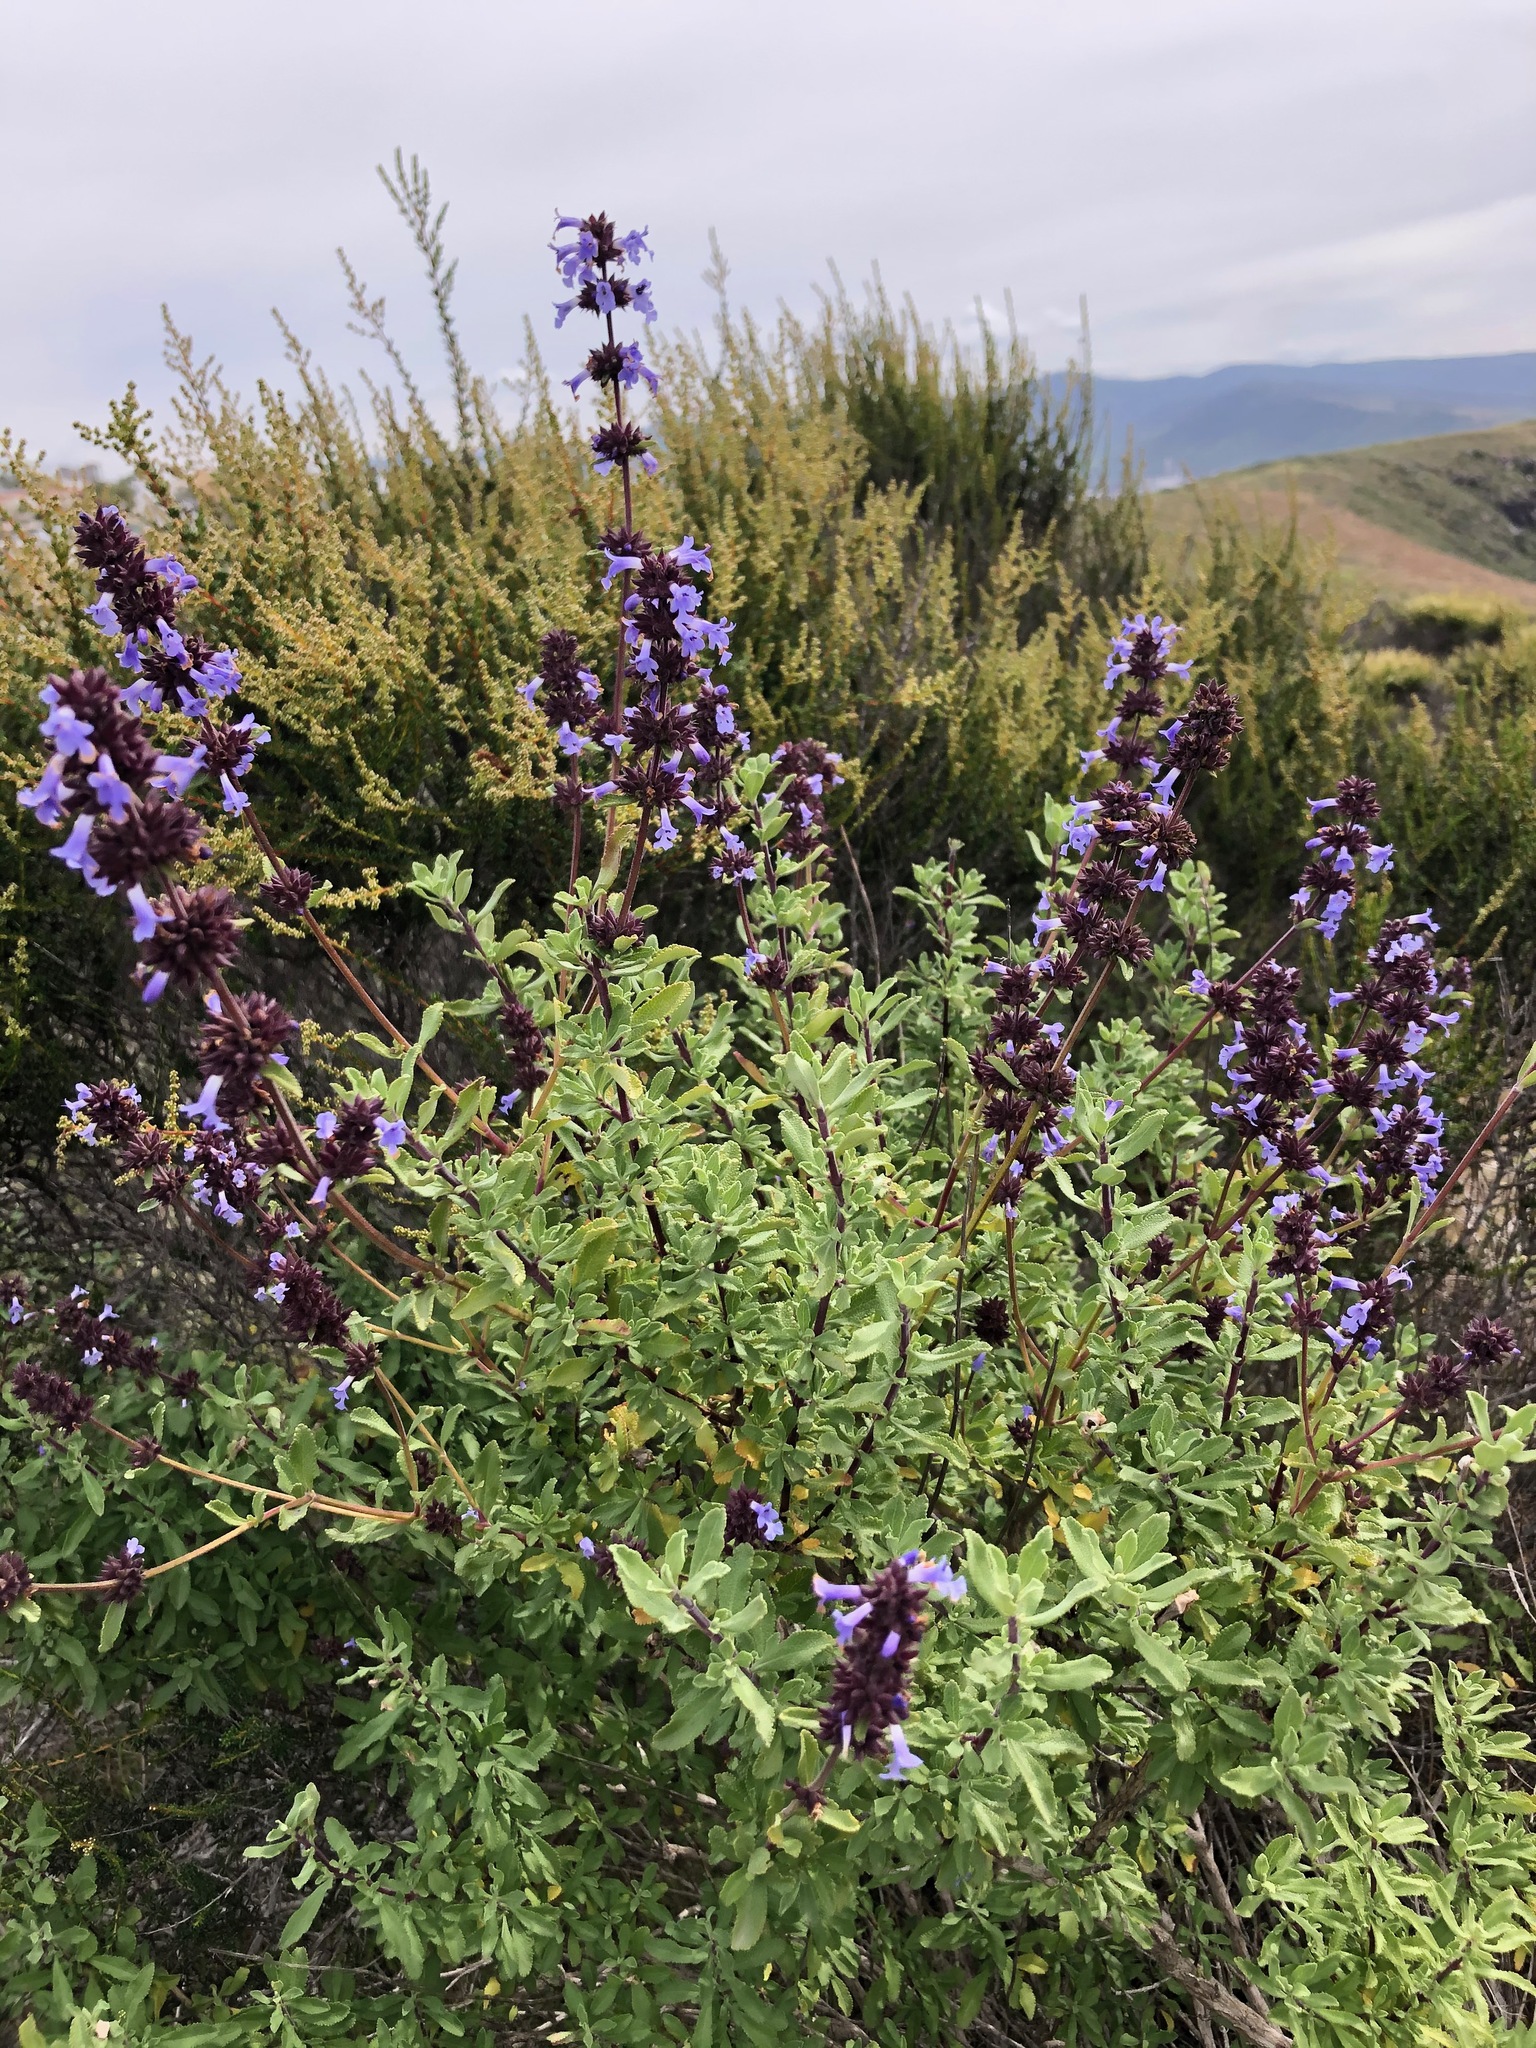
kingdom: Plantae
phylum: Tracheophyta
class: Magnoliopsida
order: Lamiales
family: Lamiaceae
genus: Salvia
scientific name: Salvia munzii
